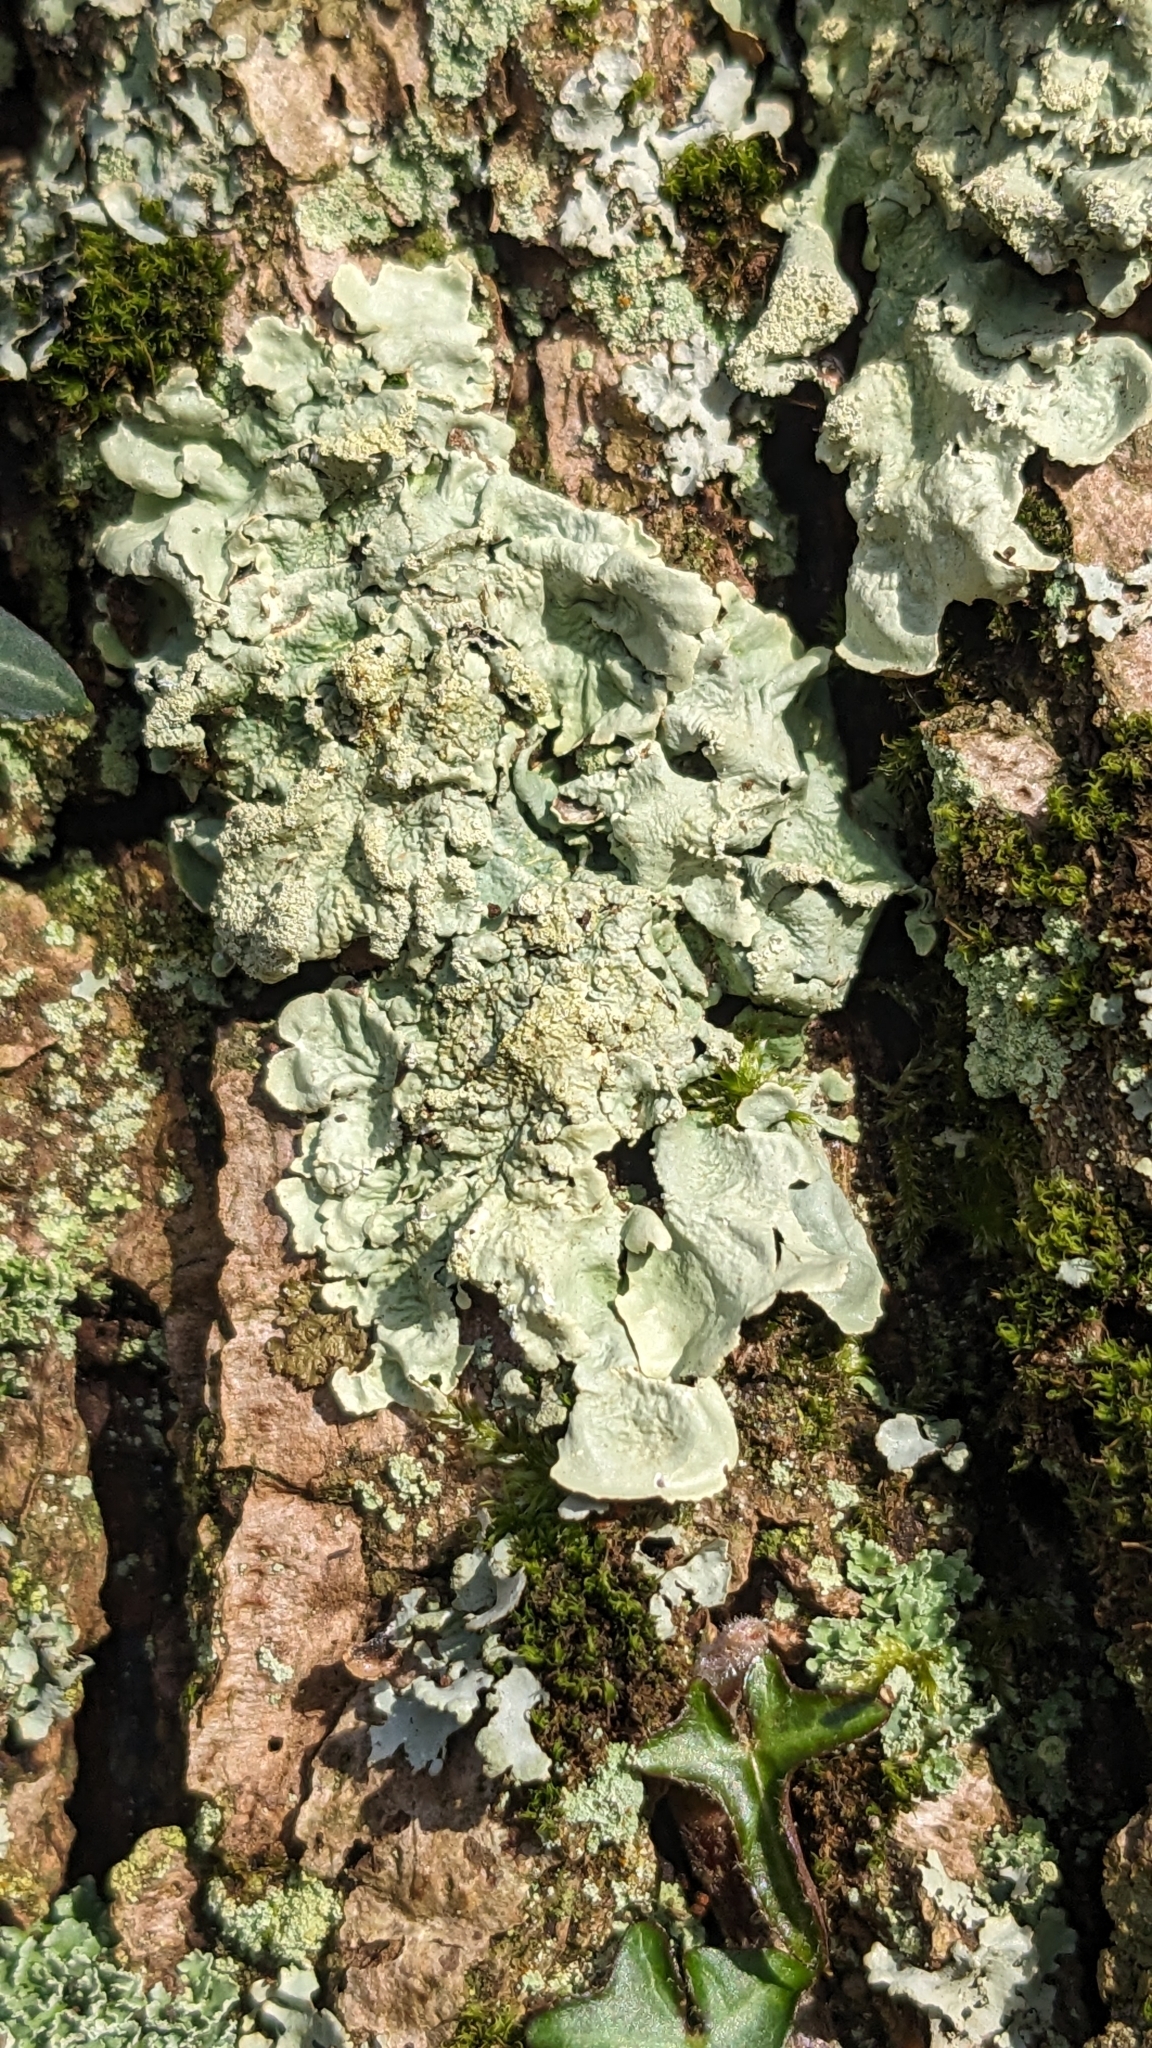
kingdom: Fungi
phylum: Ascomycota
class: Lecanoromycetes
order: Lecanorales
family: Parmeliaceae
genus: Flavoparmelia
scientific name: Flavoparmelia caperata
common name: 40-mile per hour lichen
